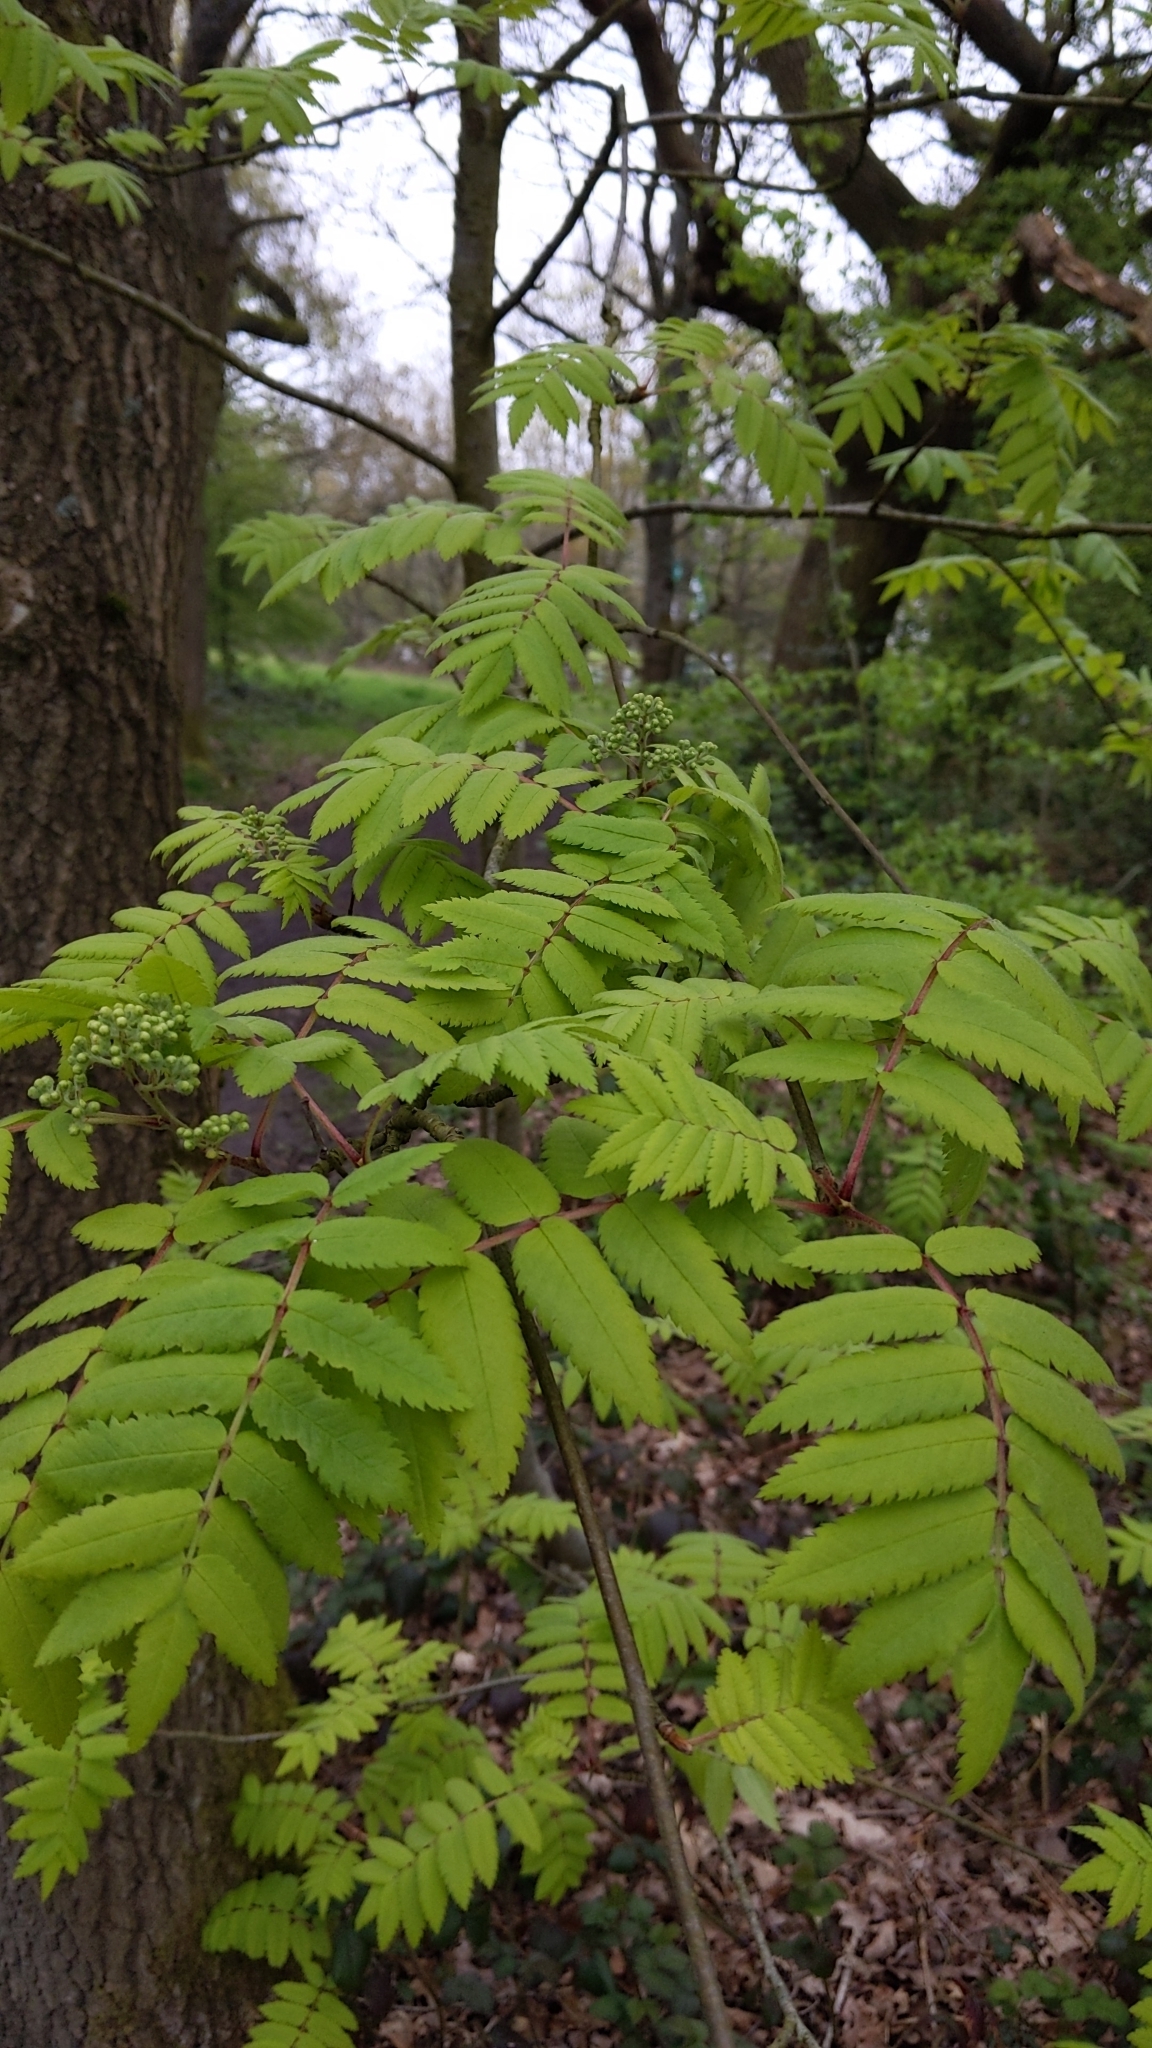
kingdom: Plantae
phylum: Tracheophyta
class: Magnoliopsida
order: Rosales
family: Rosaceae
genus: Sorbus
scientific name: Sorbus aucuparia
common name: Rowan
